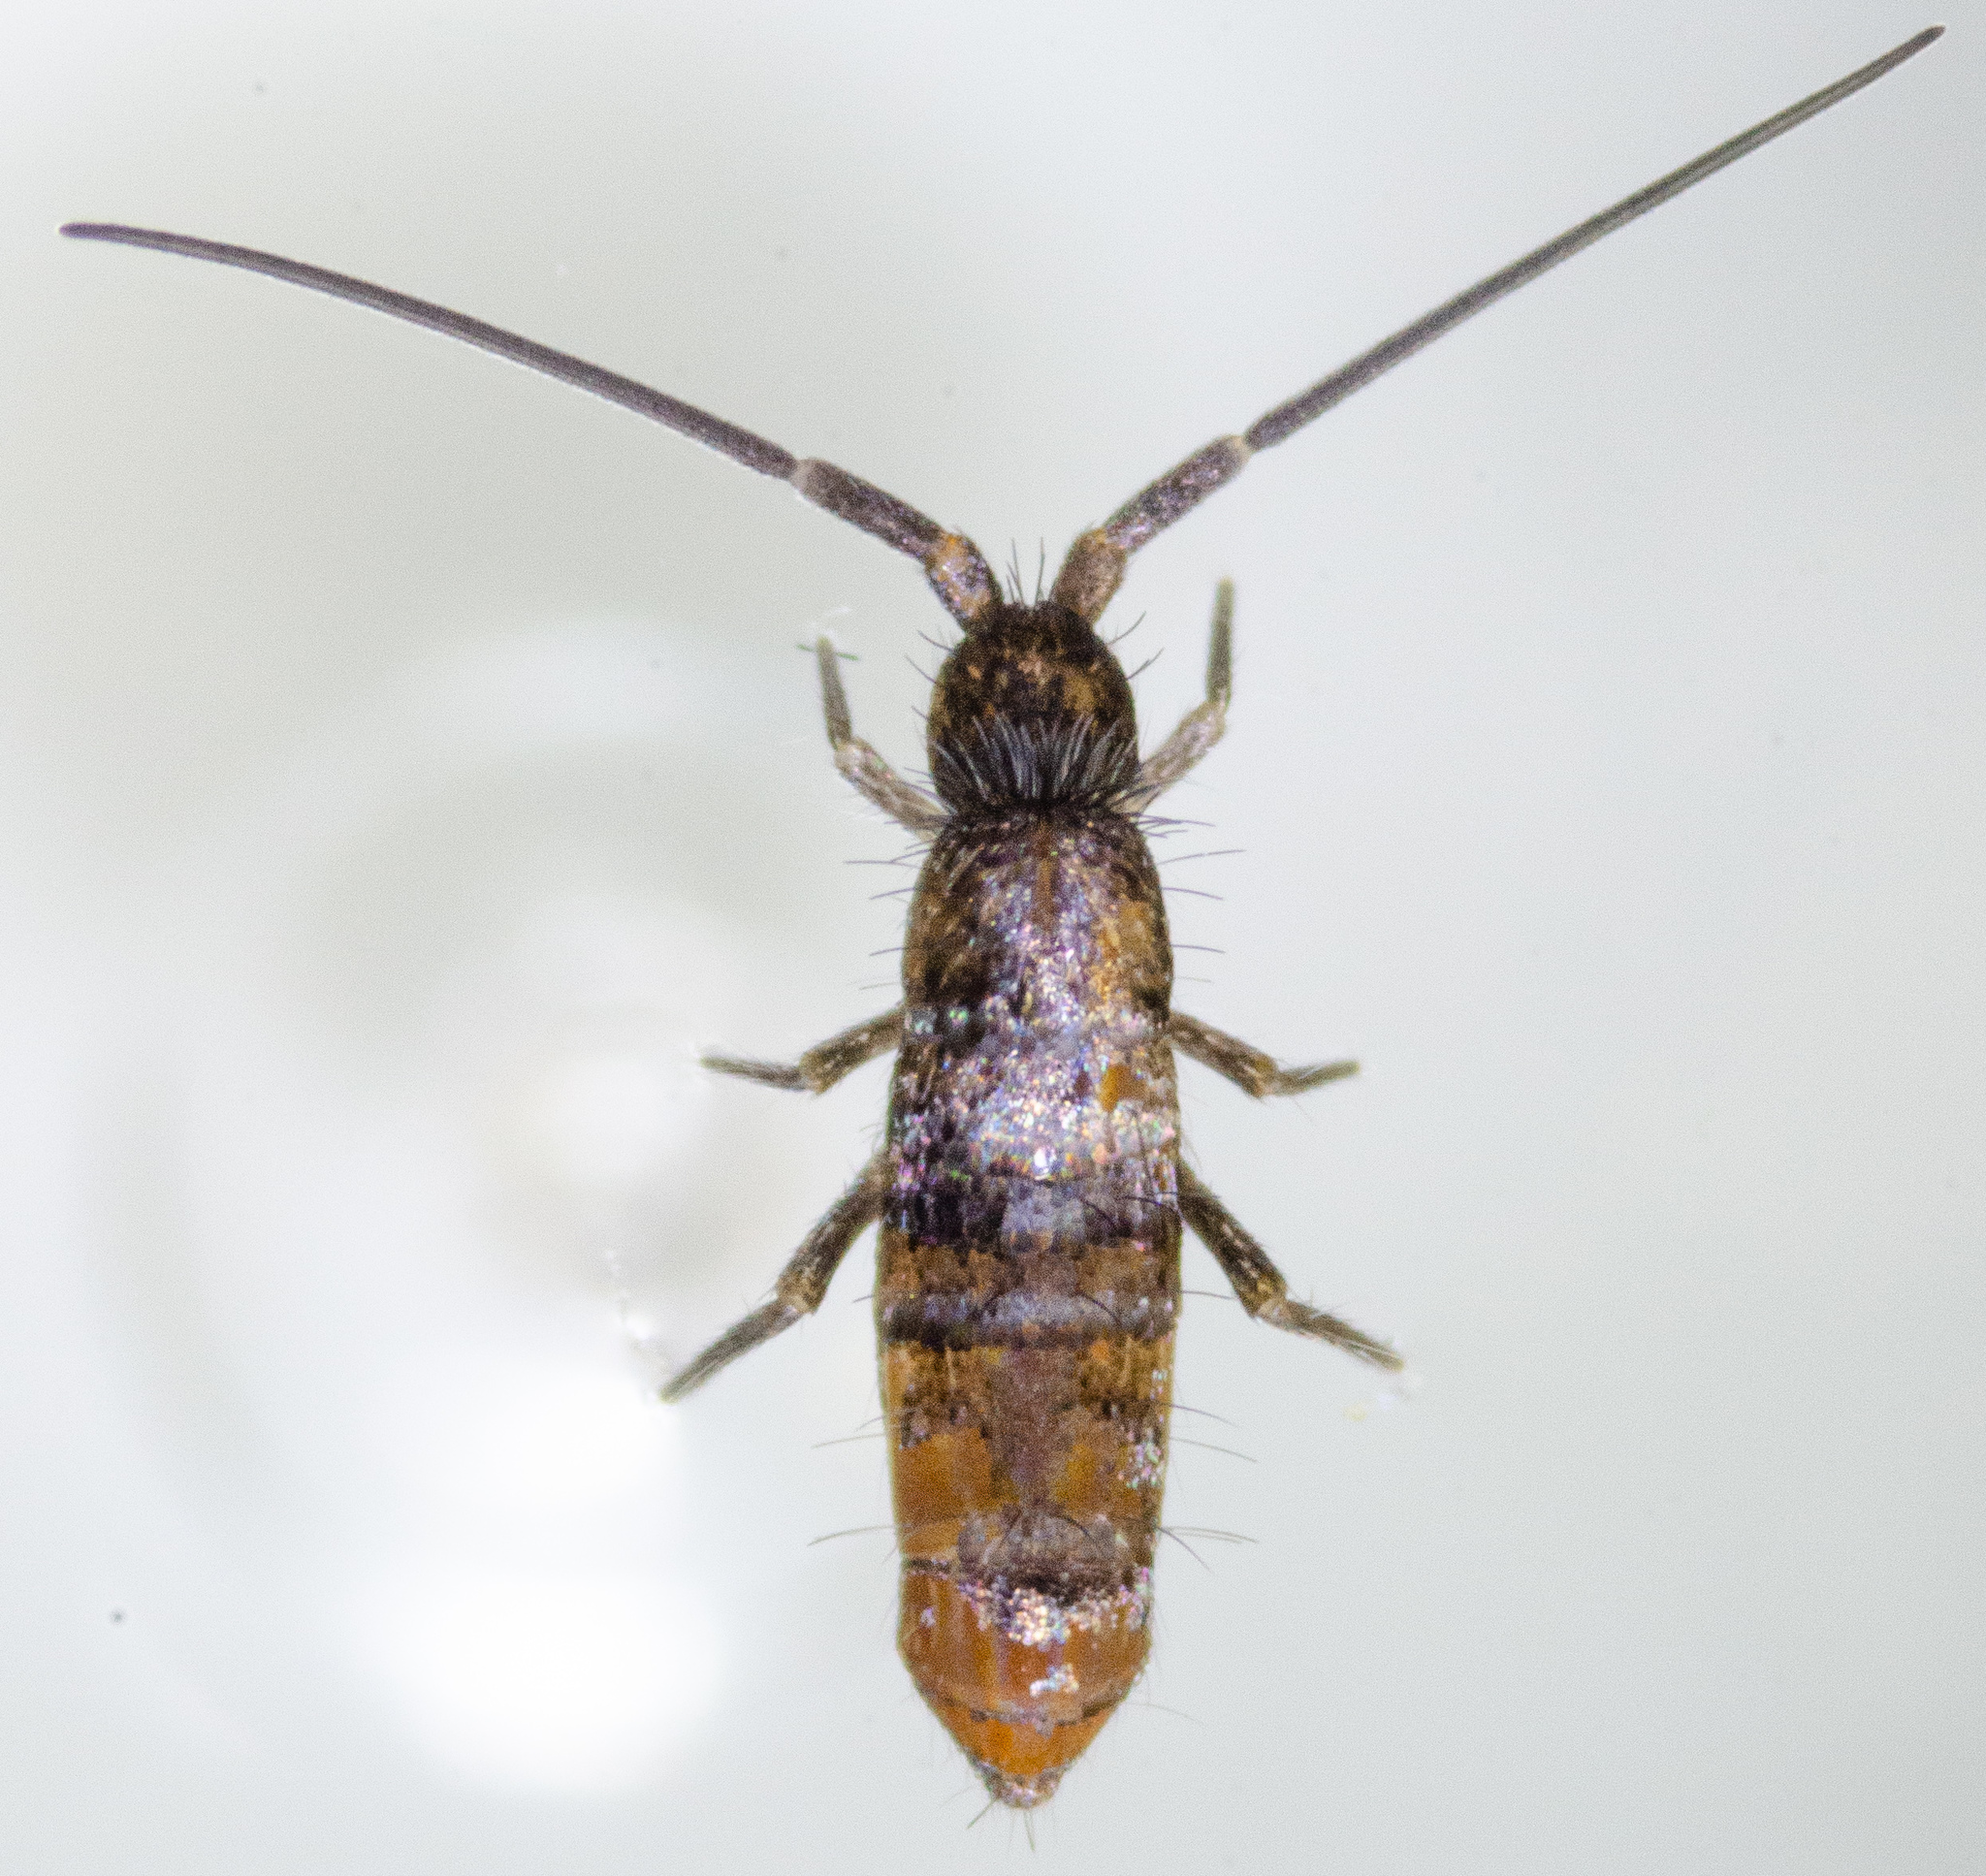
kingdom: Animalia
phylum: Arthropoda
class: Collembola
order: Entomobryomorpha
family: Tomoceridae
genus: Pogonognathellus
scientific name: Pogonognathellus dubius
